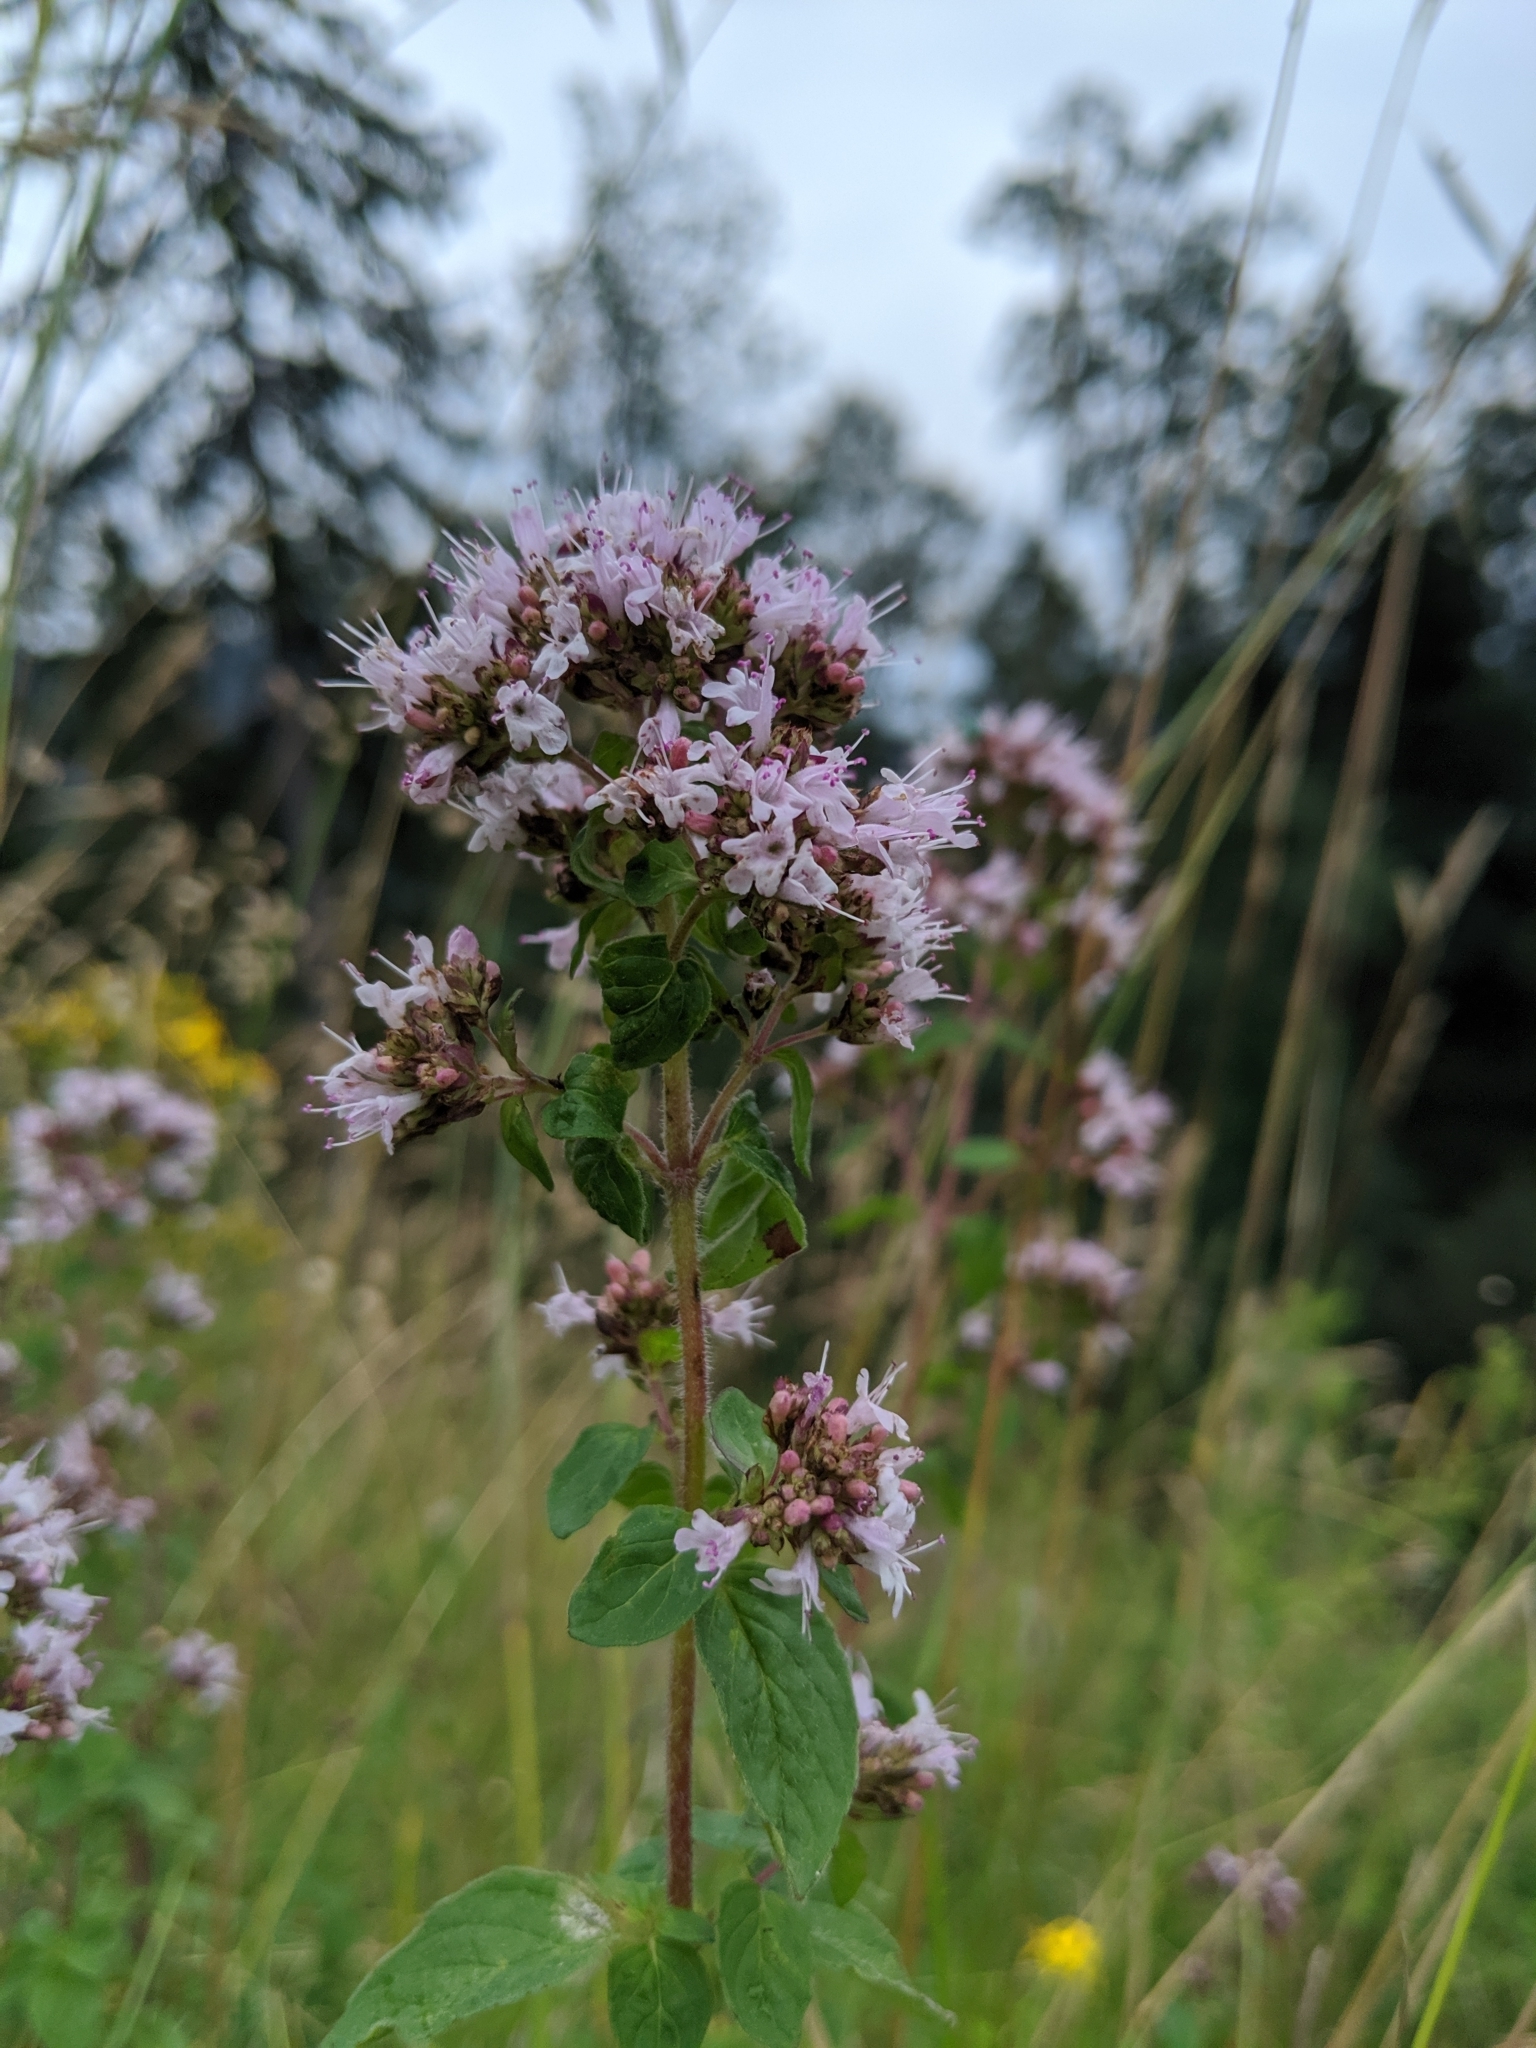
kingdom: Plantae
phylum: Tracheophyta
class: Magnoliopsida
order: Lamiales
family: Lamiaceae
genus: Origanum
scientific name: Origanum vulgare
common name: Wild marjoram
